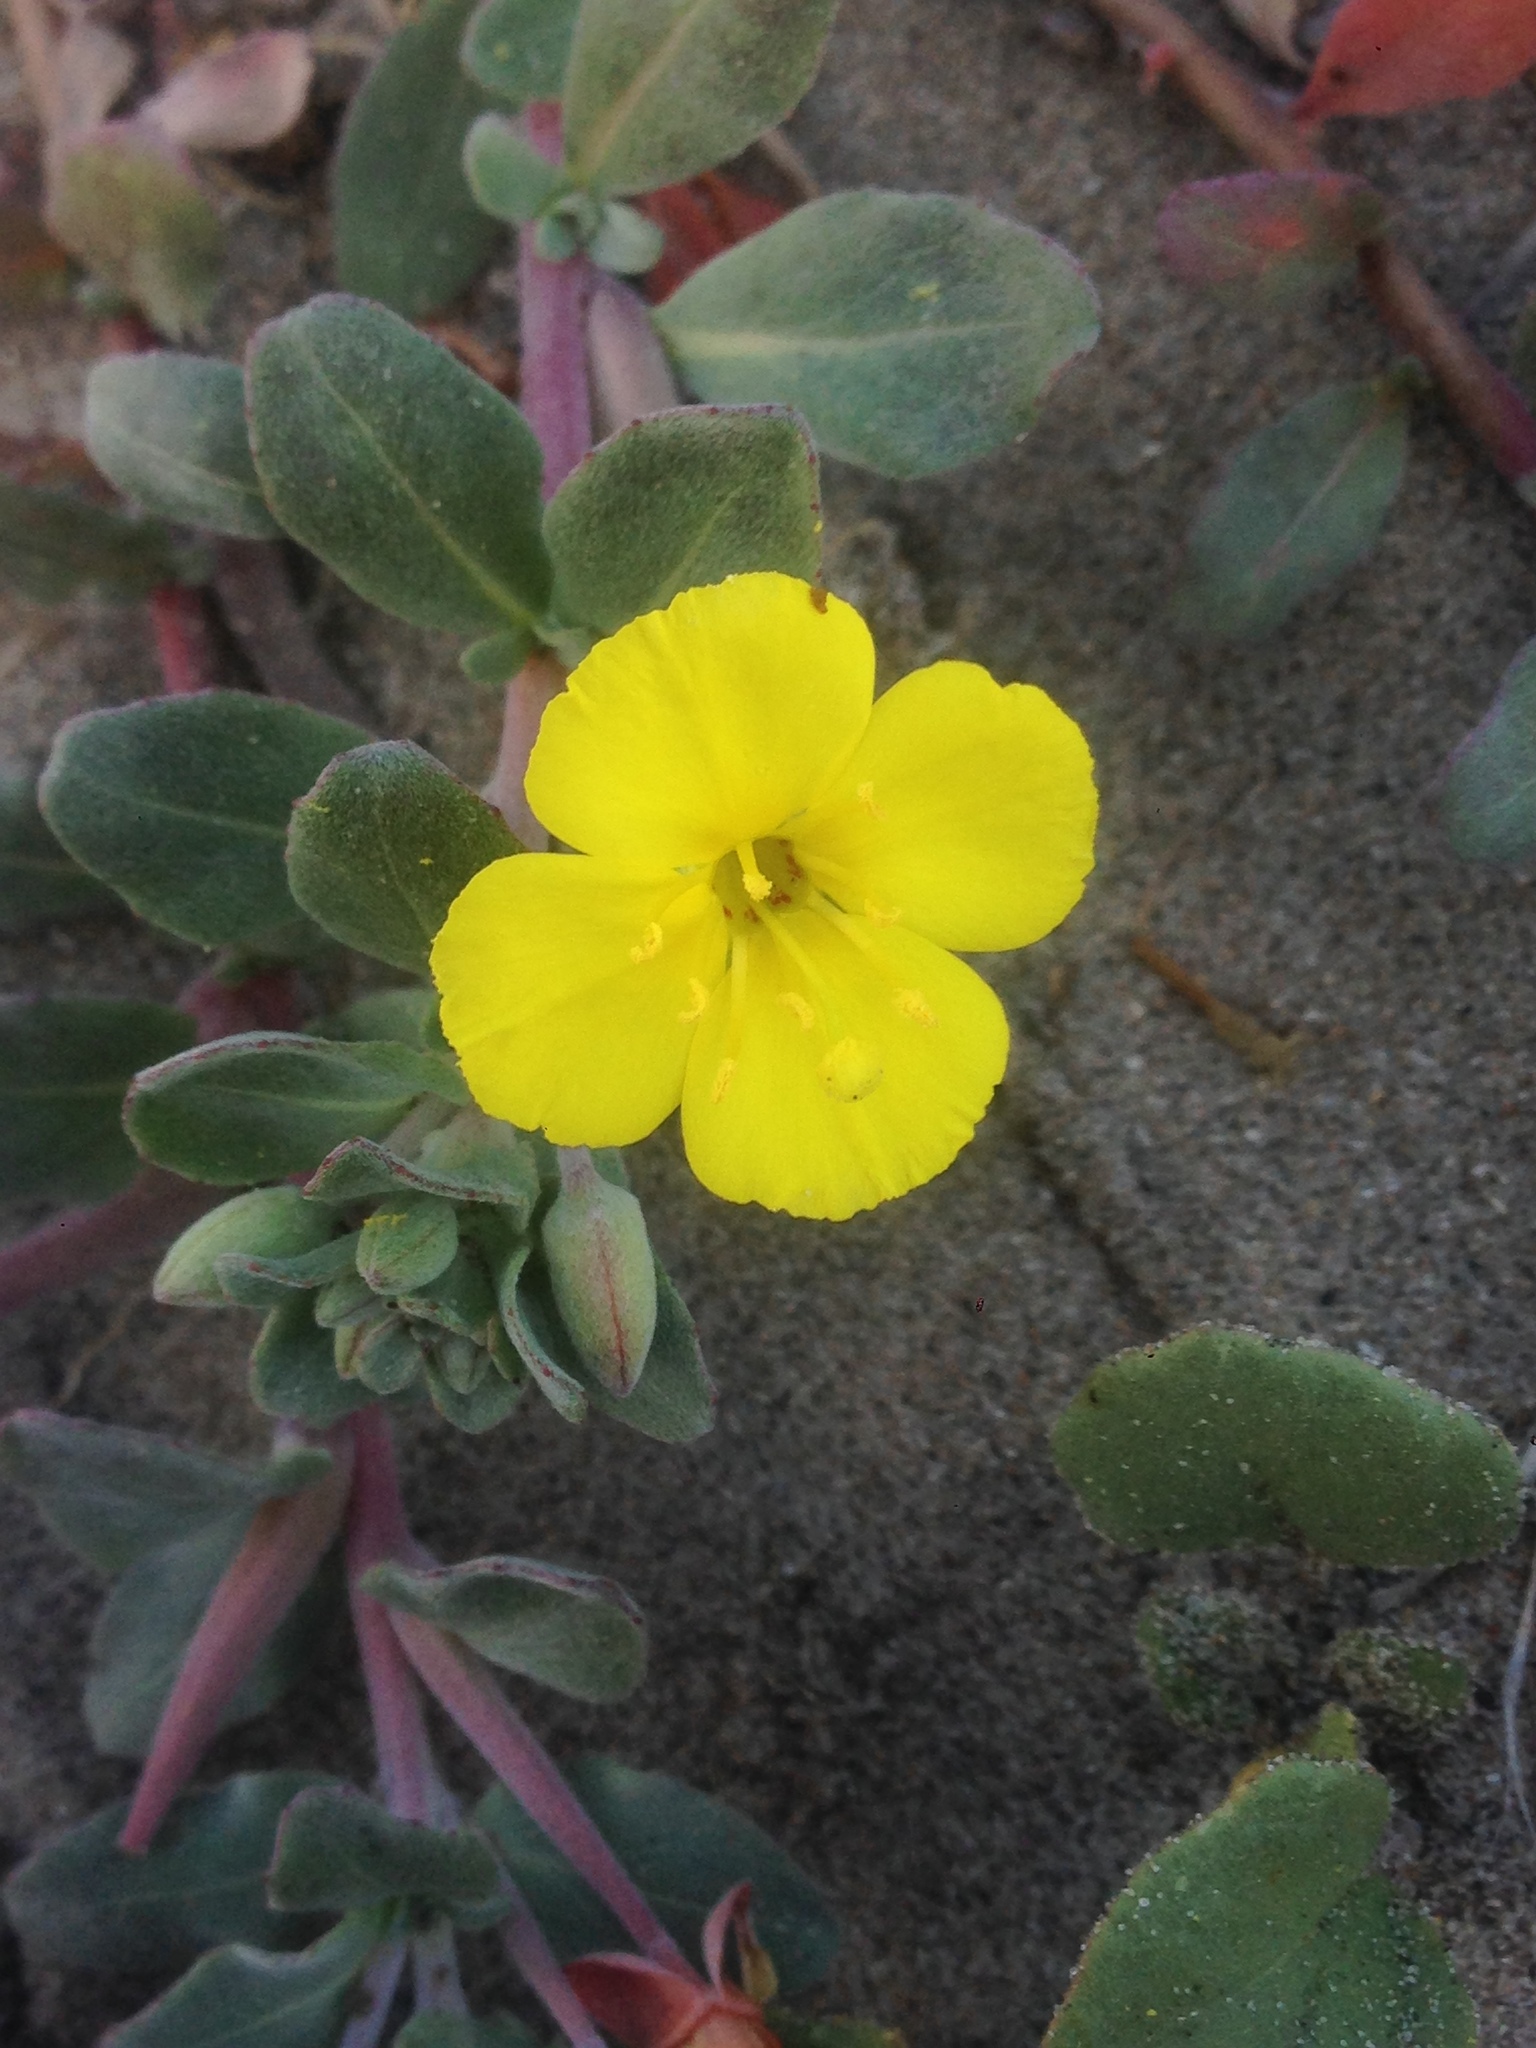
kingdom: Plantae
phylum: Tracheophyta
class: Magnoliopsida
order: Myrtales
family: Onagraceae
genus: Camissoniopsis
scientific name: Camissoniopsis cheiranthifolia
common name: Beach suncup
